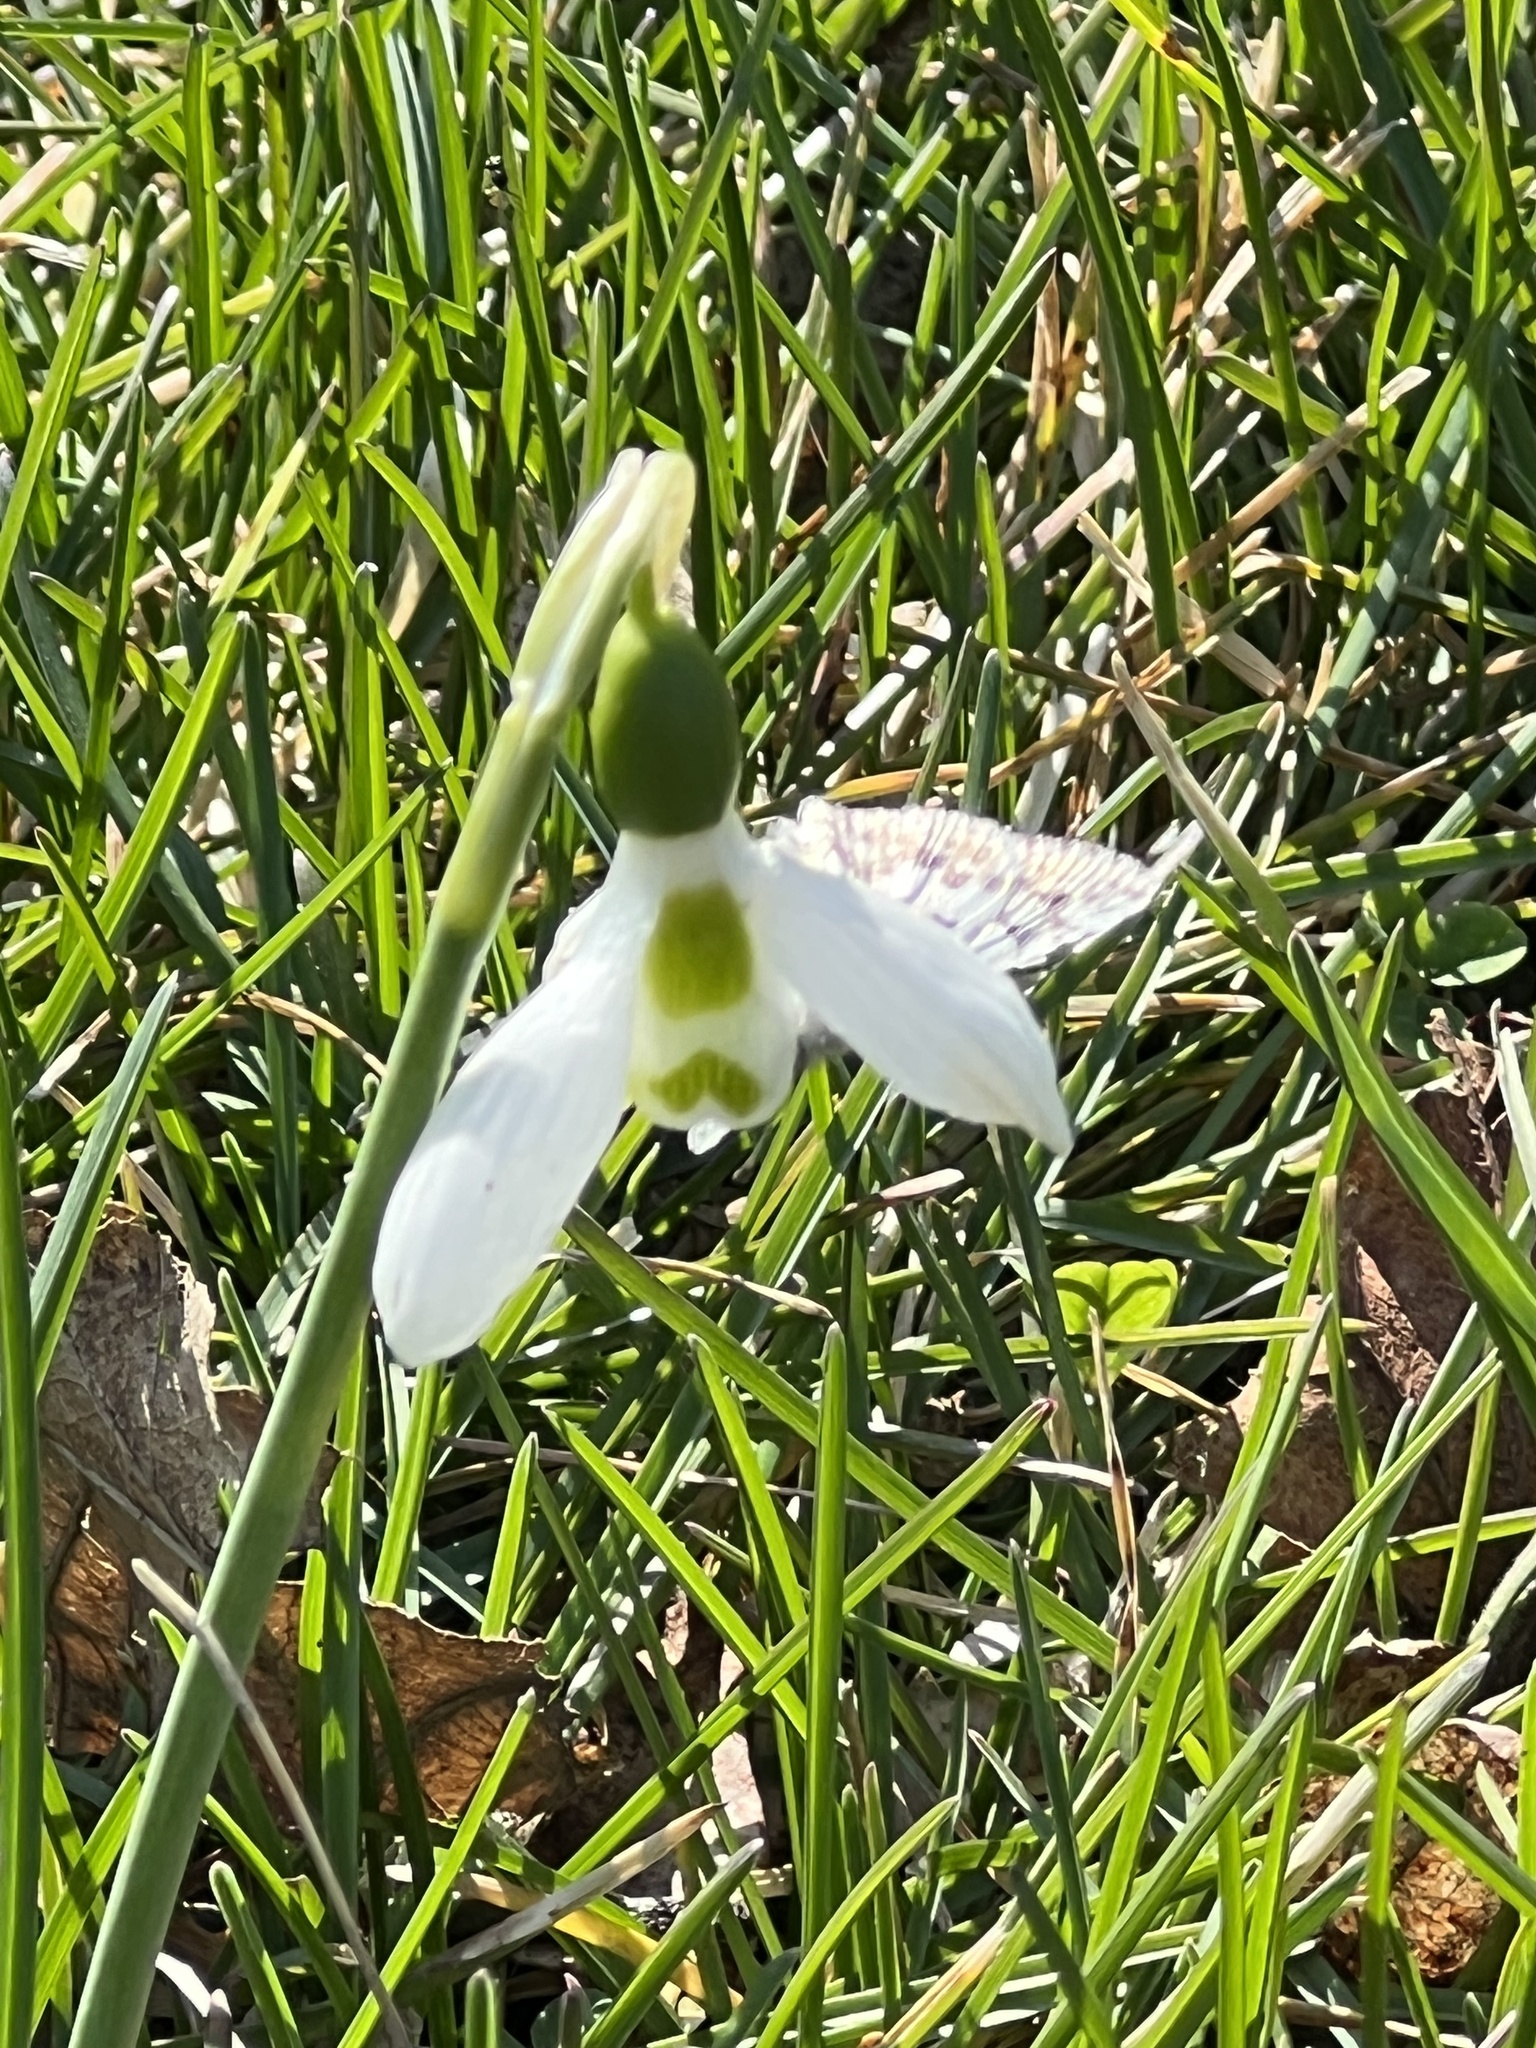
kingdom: Animalia
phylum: Arthropoda
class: Insecta
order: Lepidoptera
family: Hesperiidae
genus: Burnsius
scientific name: Burnsius communis
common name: Common checkered-skipper
